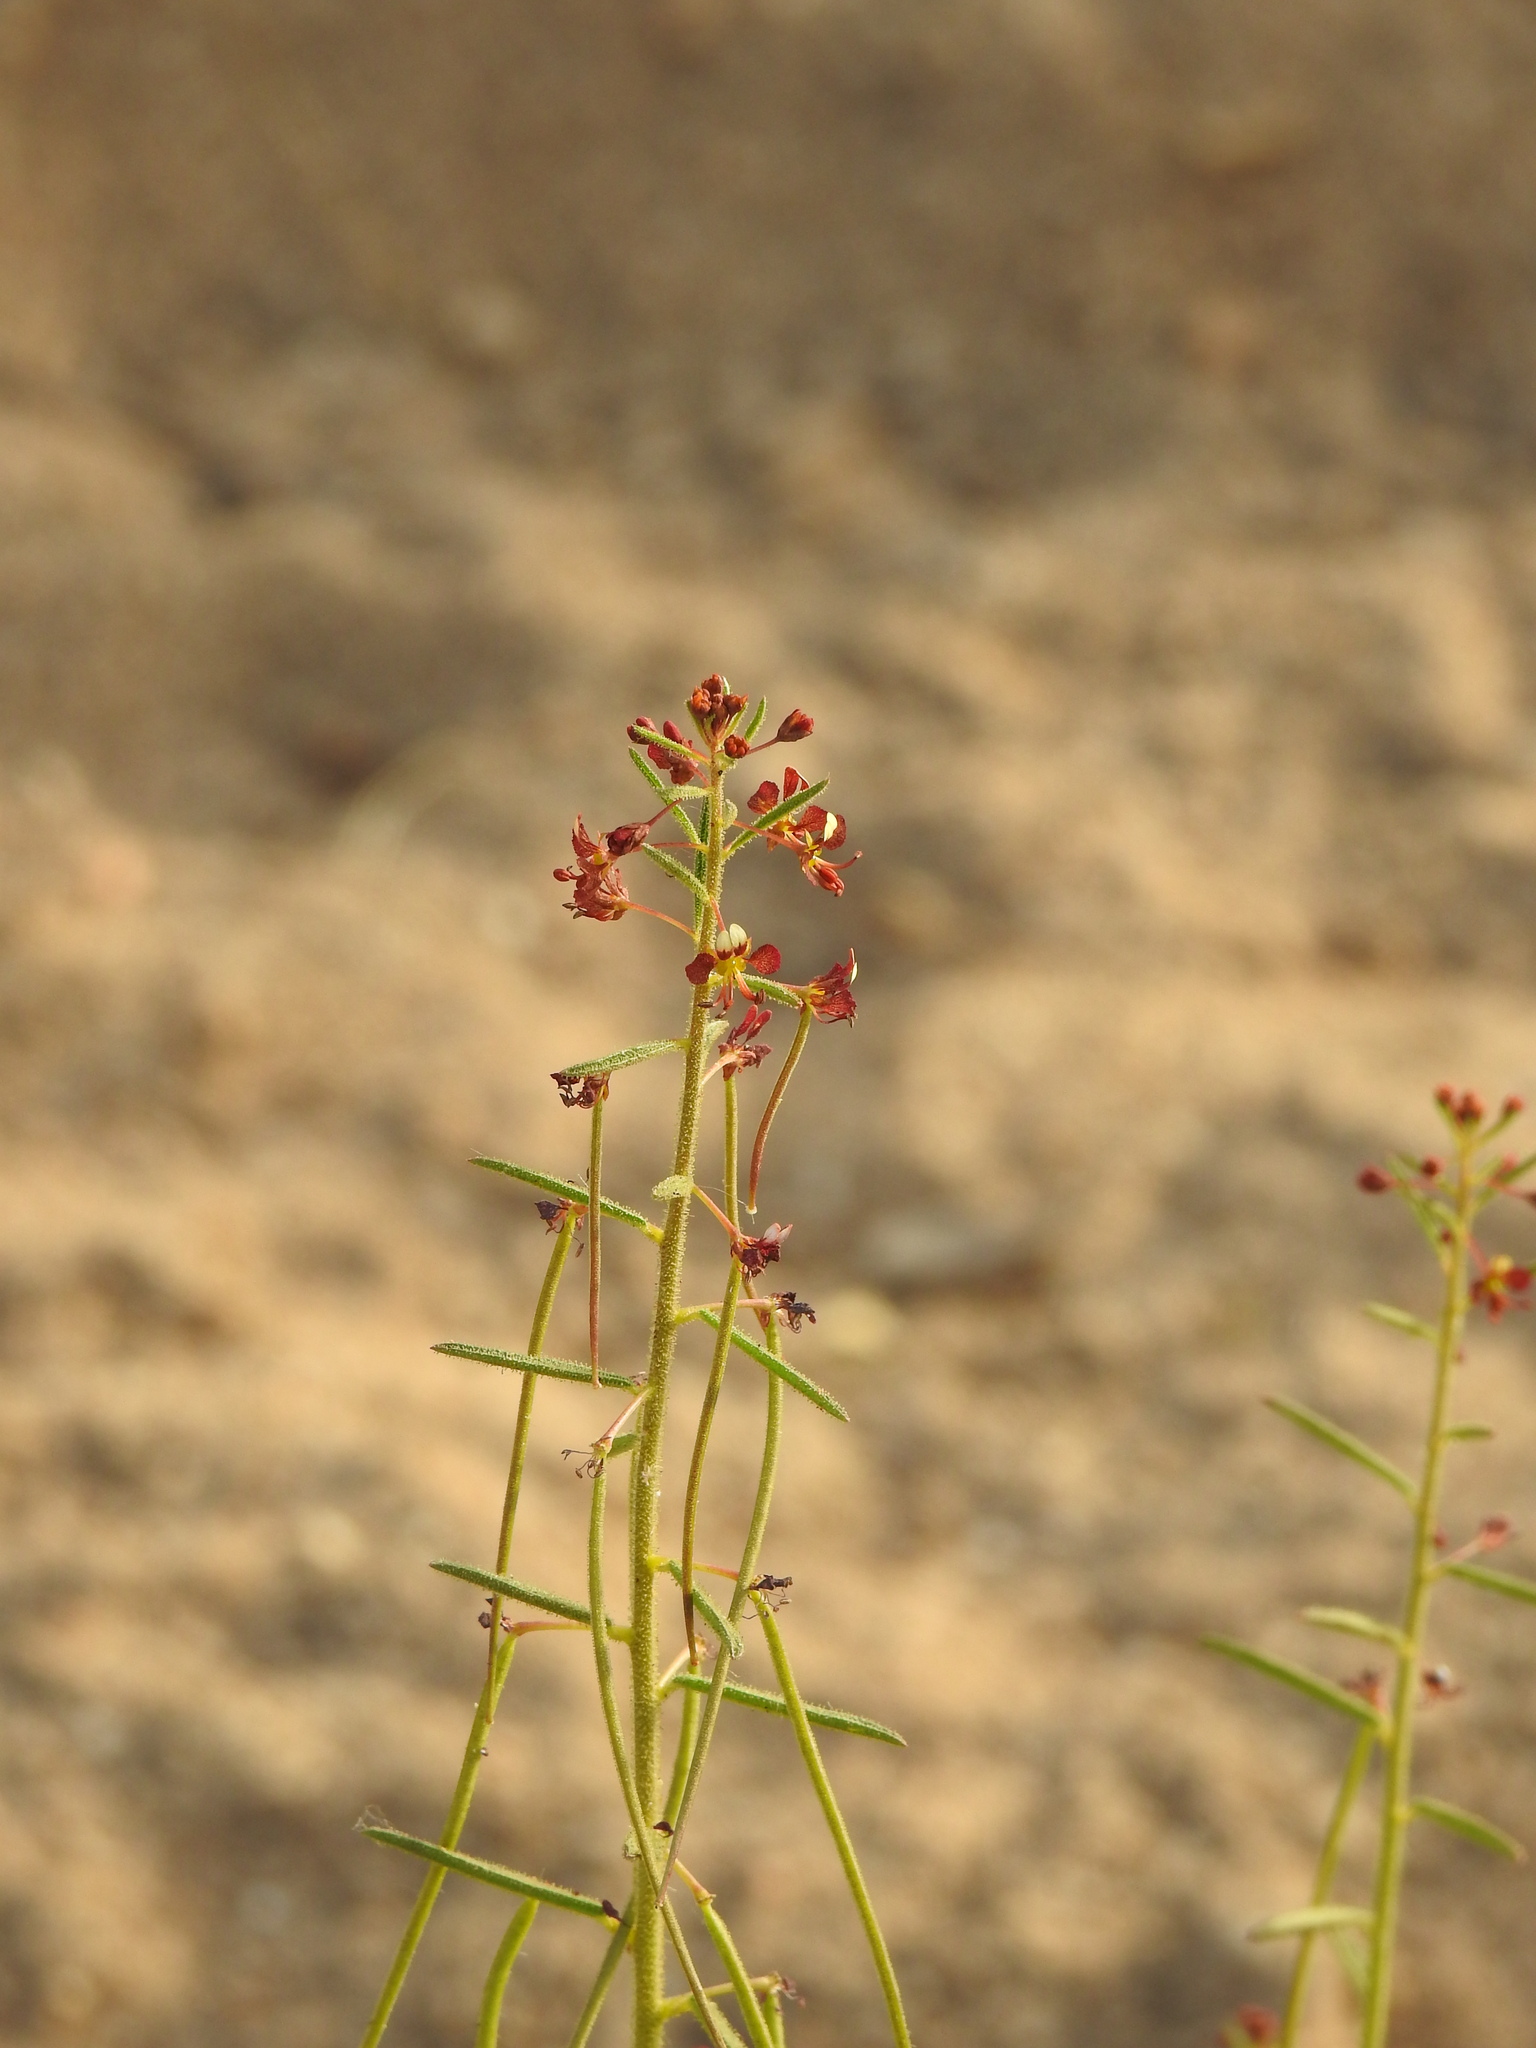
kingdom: Plantae
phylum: Tracheophyta
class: Magnoliopsida
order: Brassicales
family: Cleomaceae
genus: Cleome
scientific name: Cleome violacea
